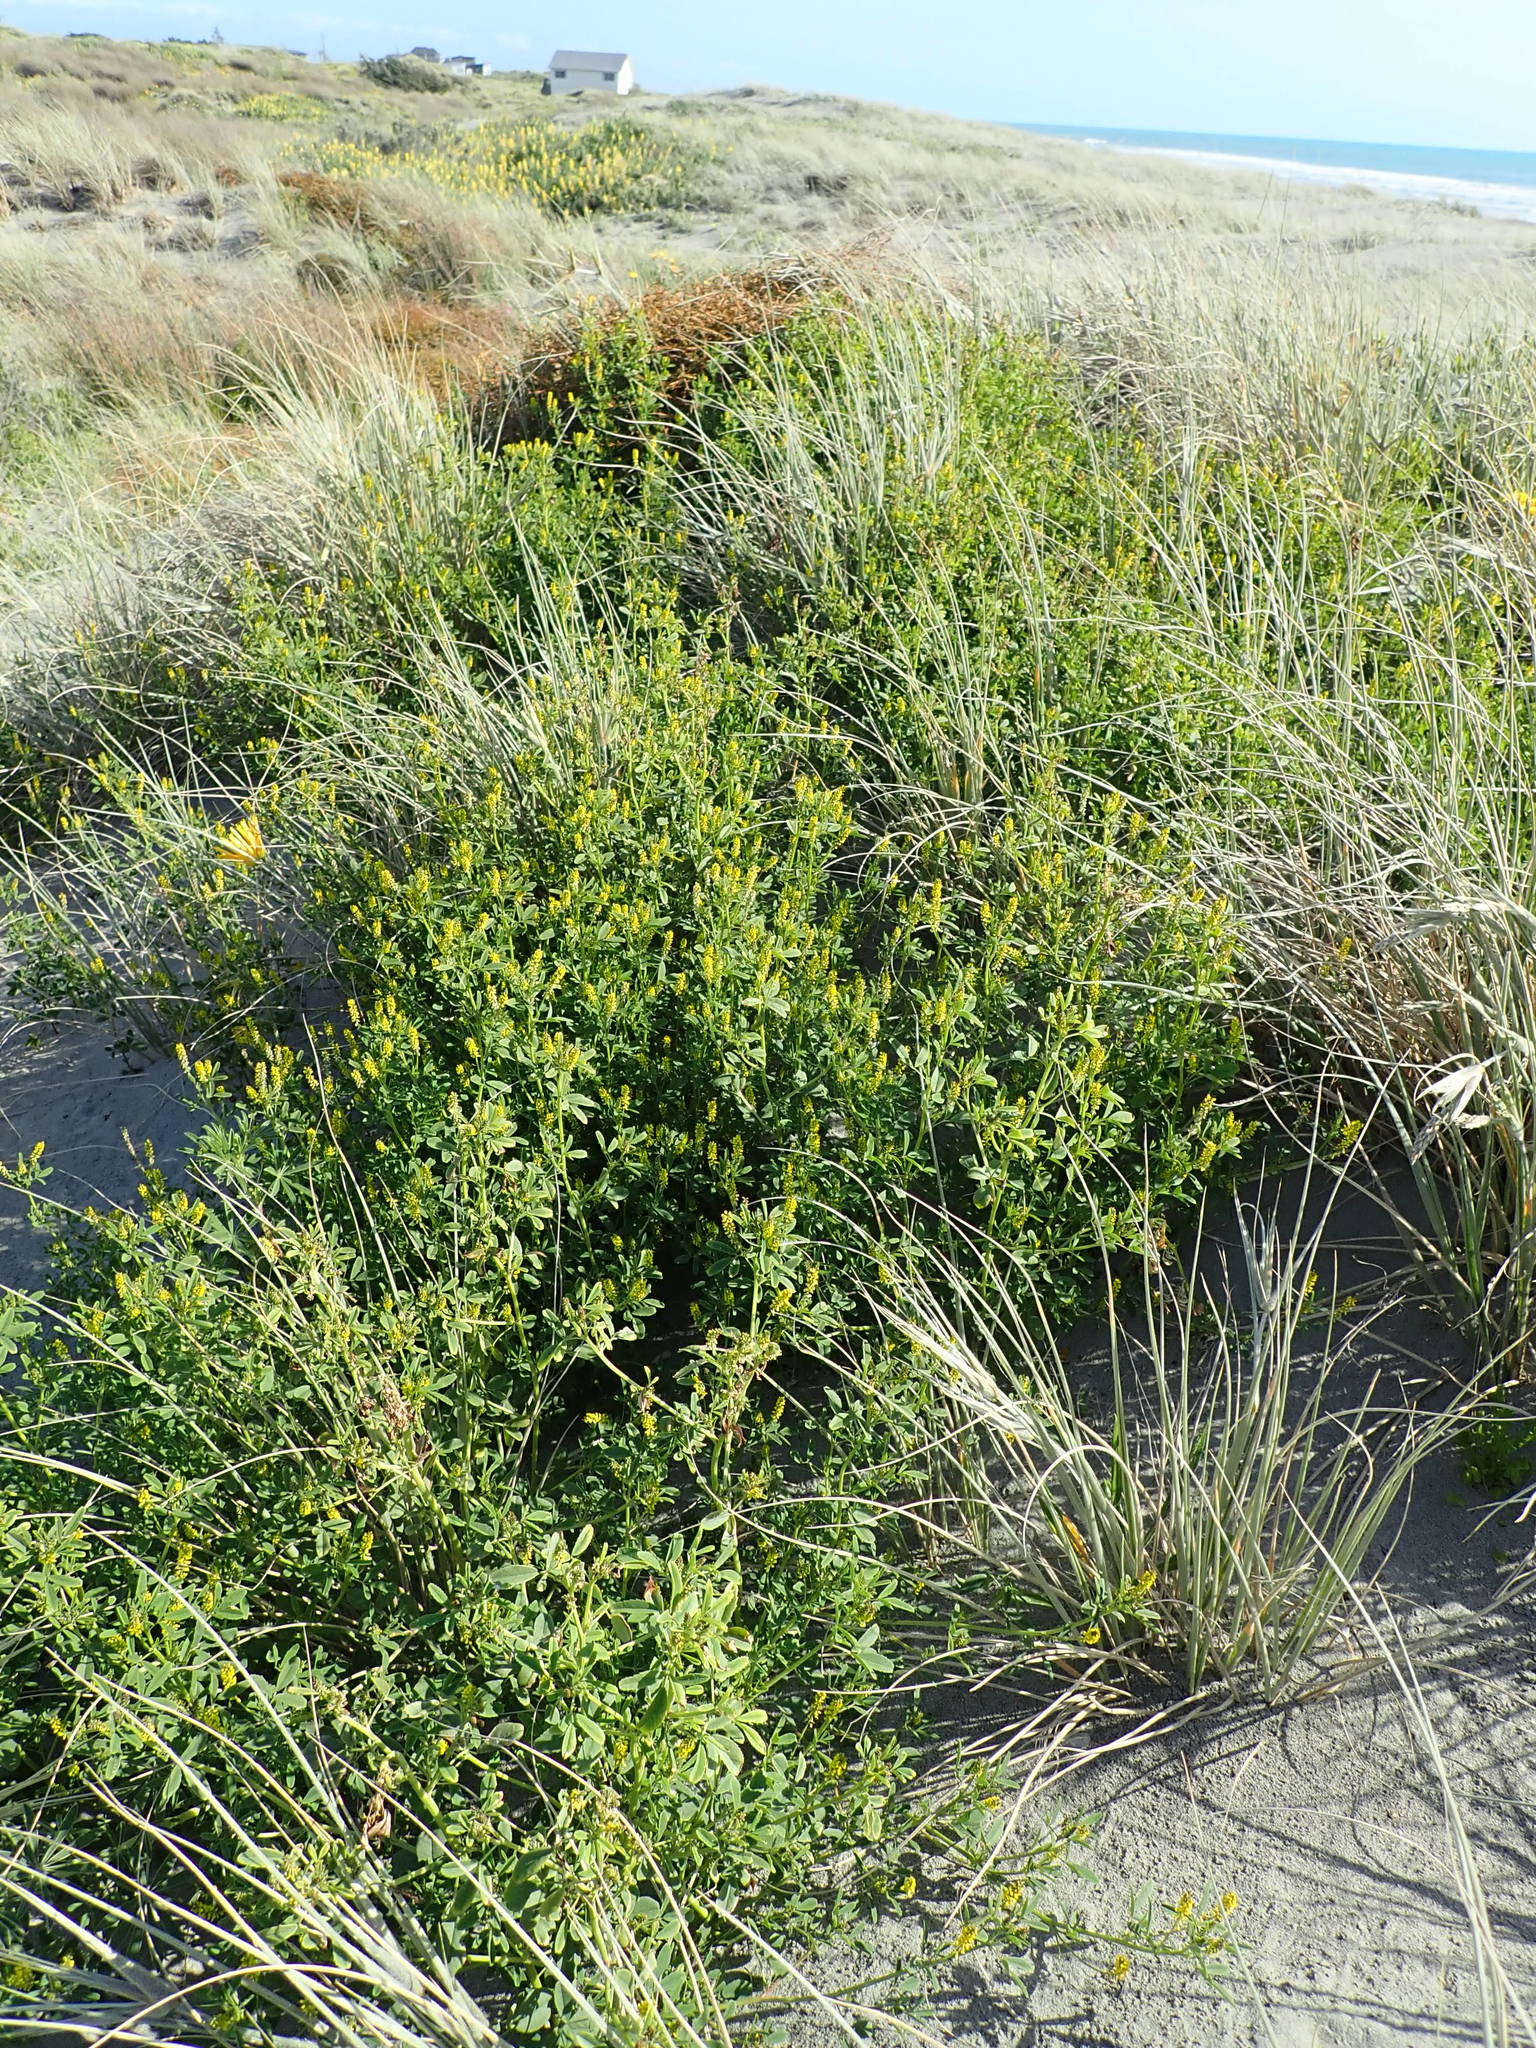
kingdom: Plantae
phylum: Tracheophyta
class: Magnoliopsida
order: Fabales
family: Fabaceae
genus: Melilotus
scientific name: Melilotus indicus
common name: Small melilot
